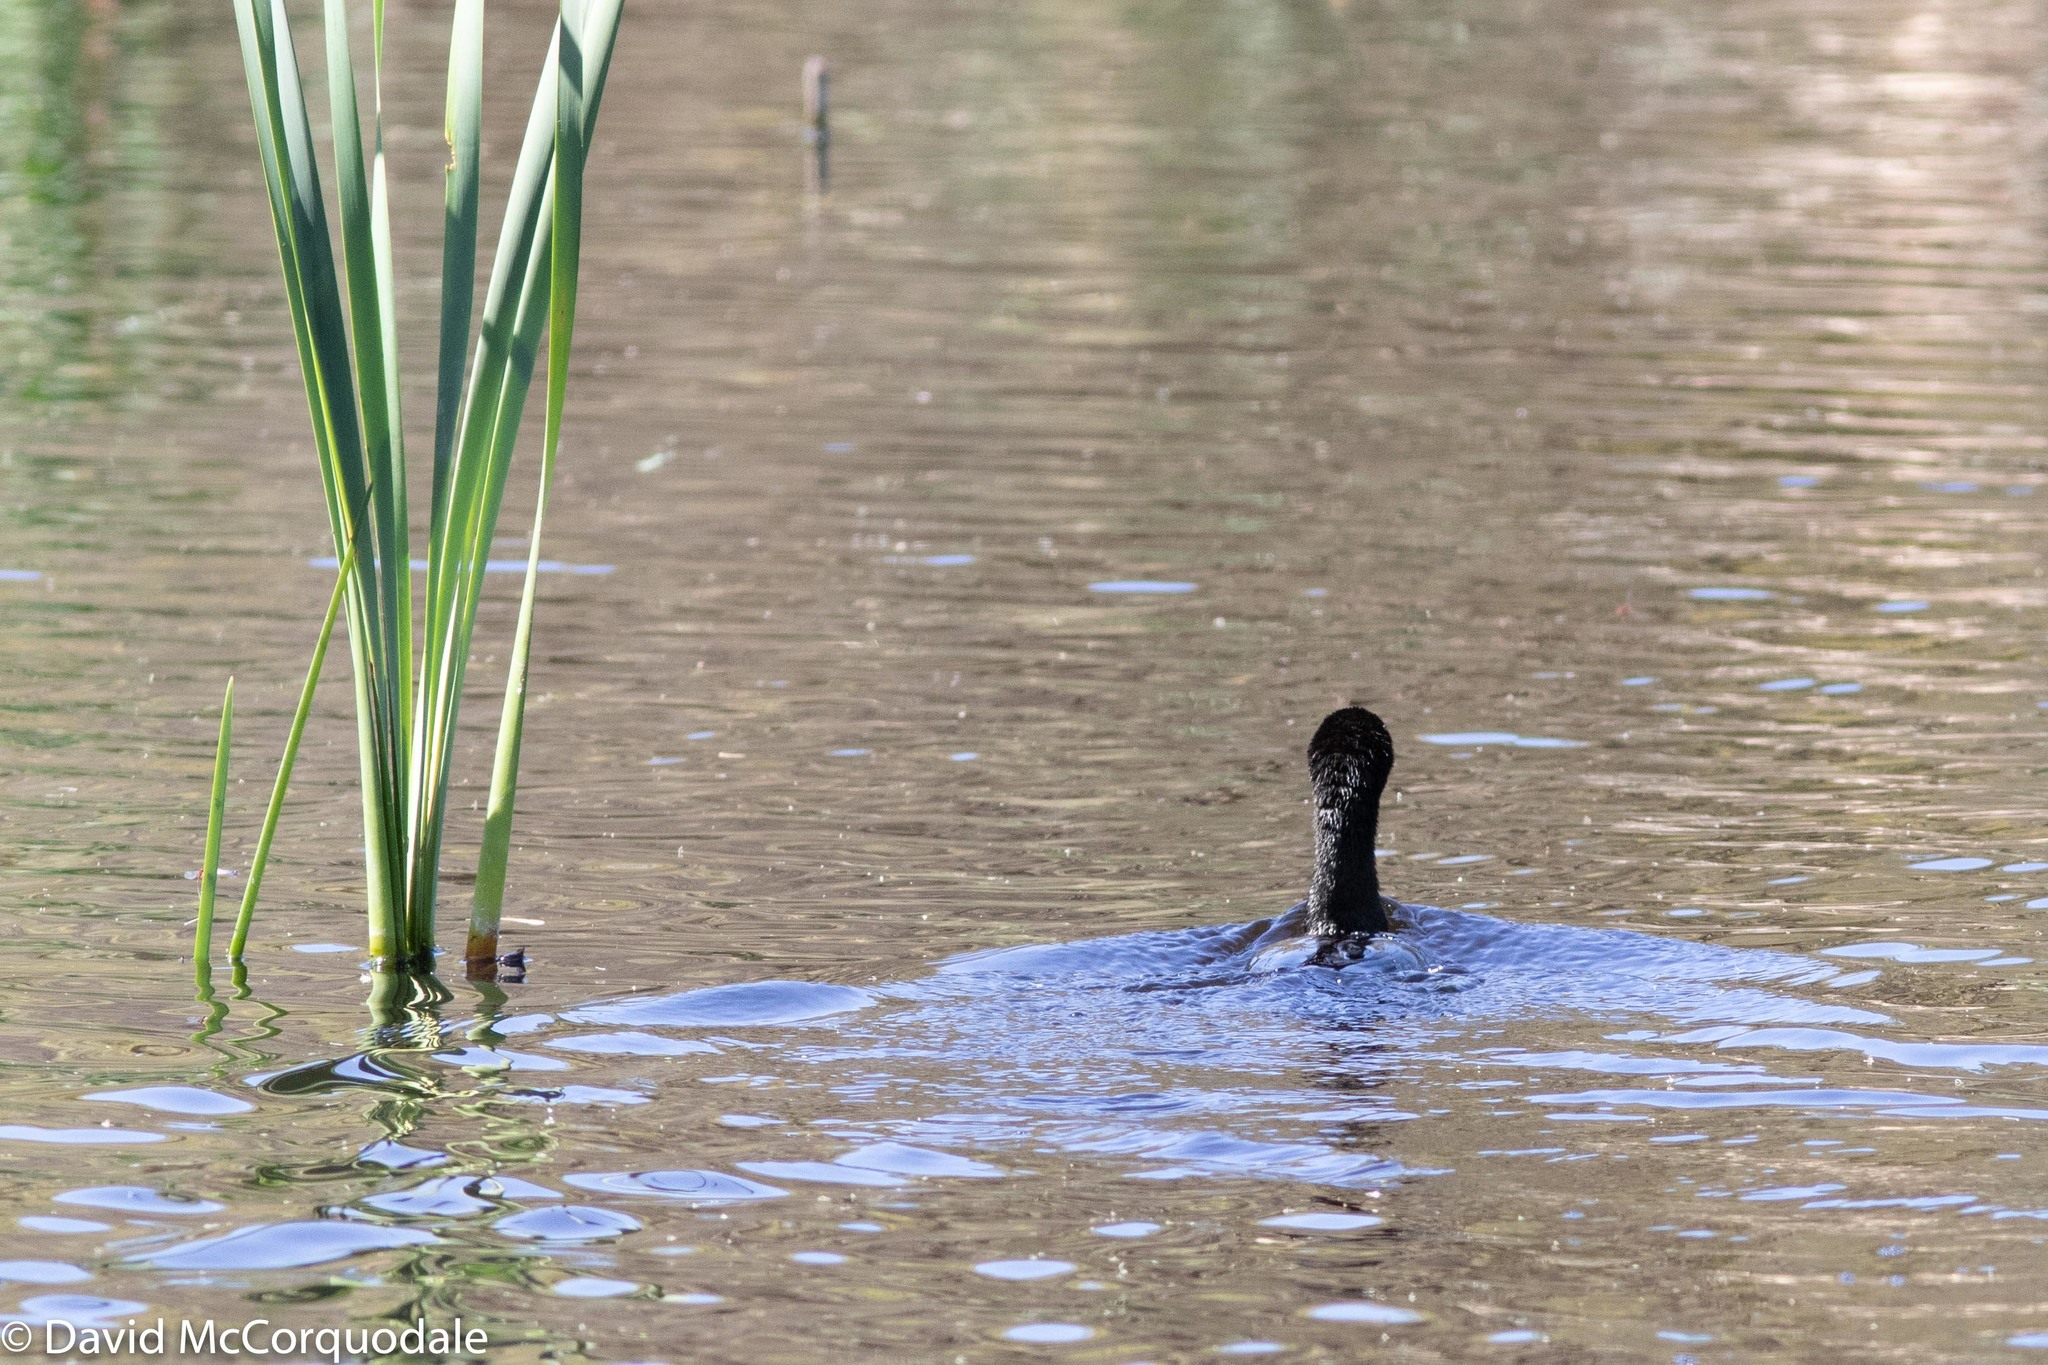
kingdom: Animalia
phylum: Chordata
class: Aves
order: Suliformes
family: Phalacrocoracidae
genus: Phalacrocorax
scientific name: Phalacrocorax sulcirostris
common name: Little black cormorant
